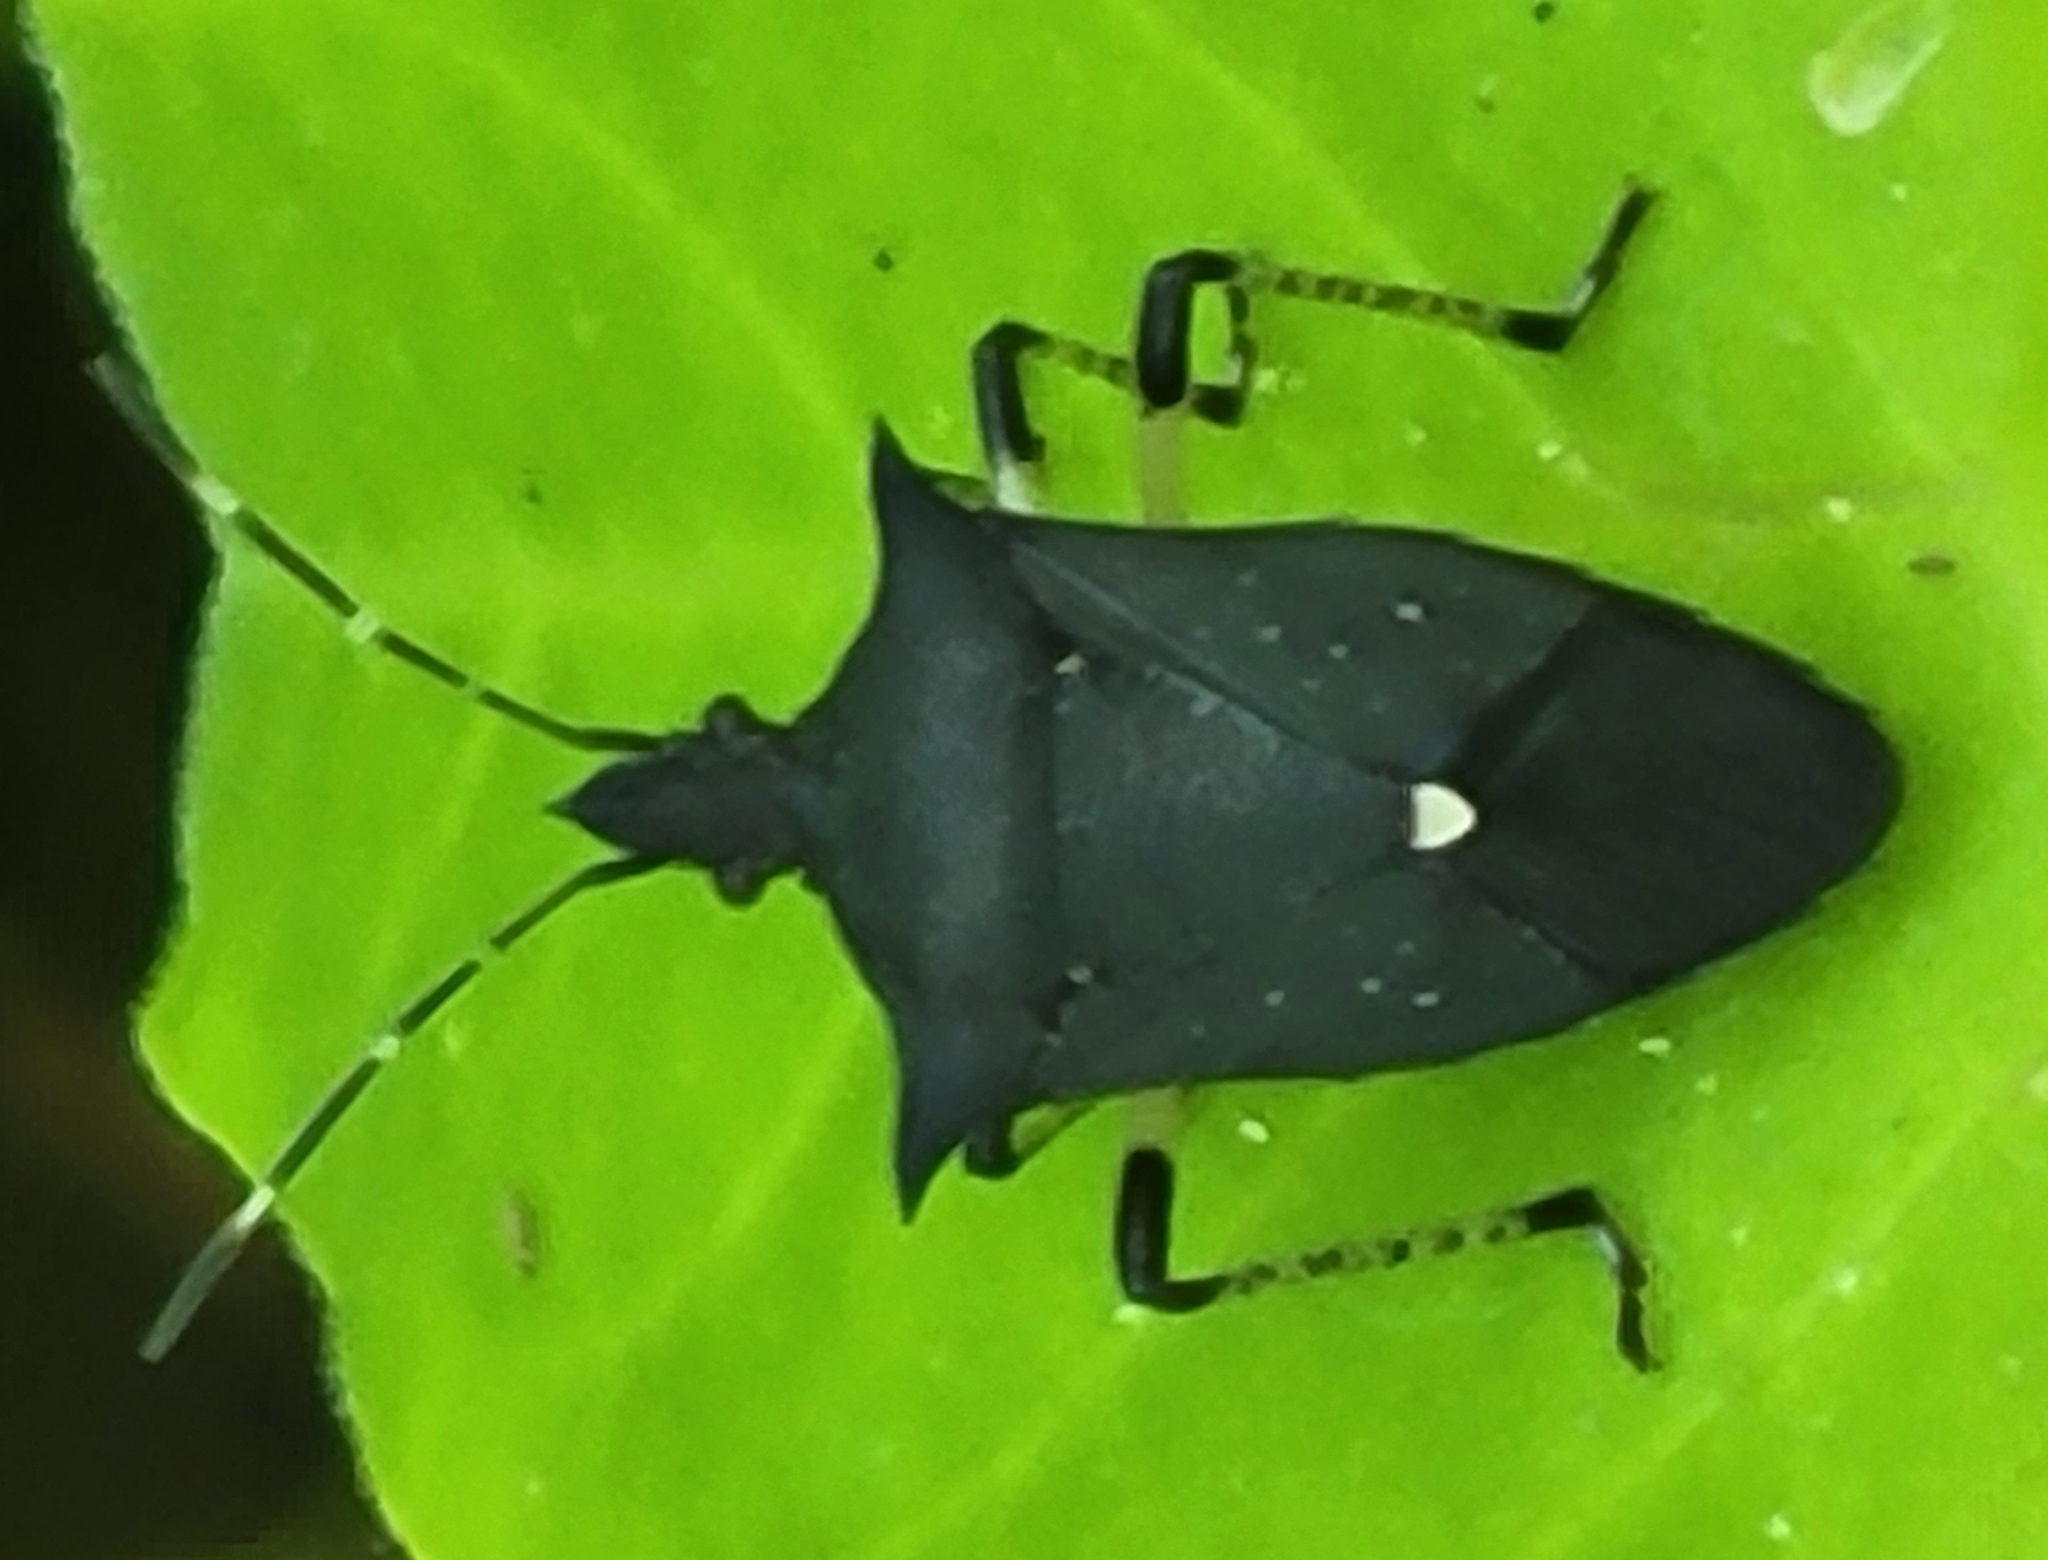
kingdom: Animalia
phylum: Arthropoda
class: Insecta
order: Hemiptera
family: Pentatomidae
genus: Proxys
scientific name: Proxys punctulatus
